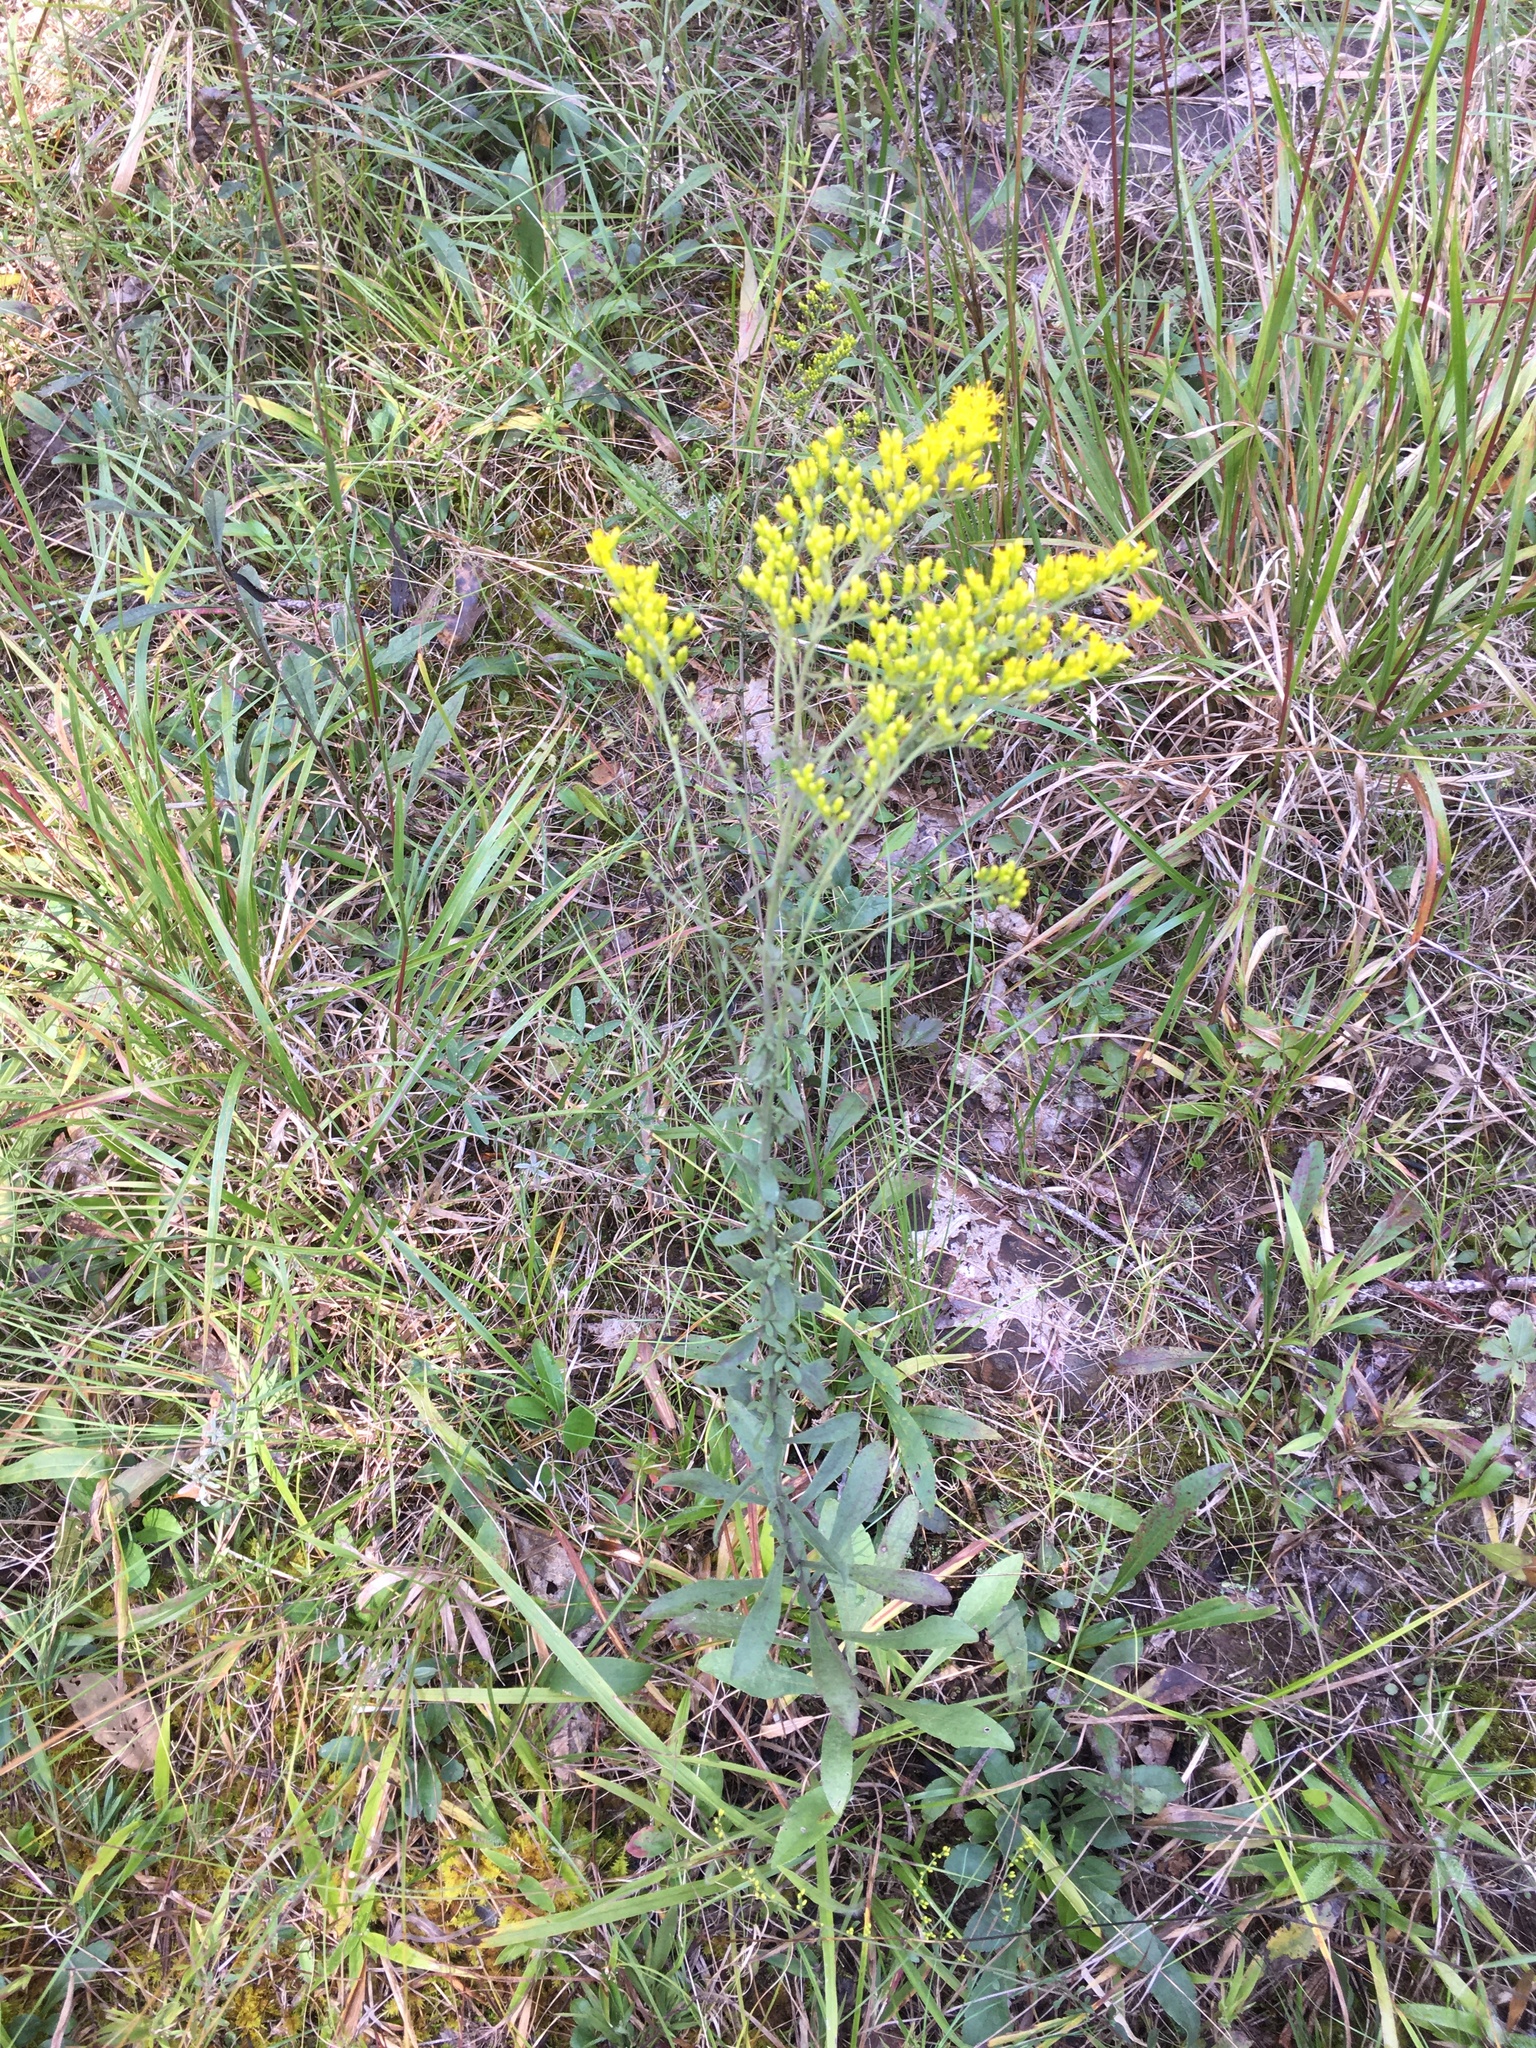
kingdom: Plantae
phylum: Tracheophyta
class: Magnoliopsida
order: Asterales
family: Asteraceae
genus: Solidago
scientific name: Solidago nemoralis
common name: Grey goldenrod
